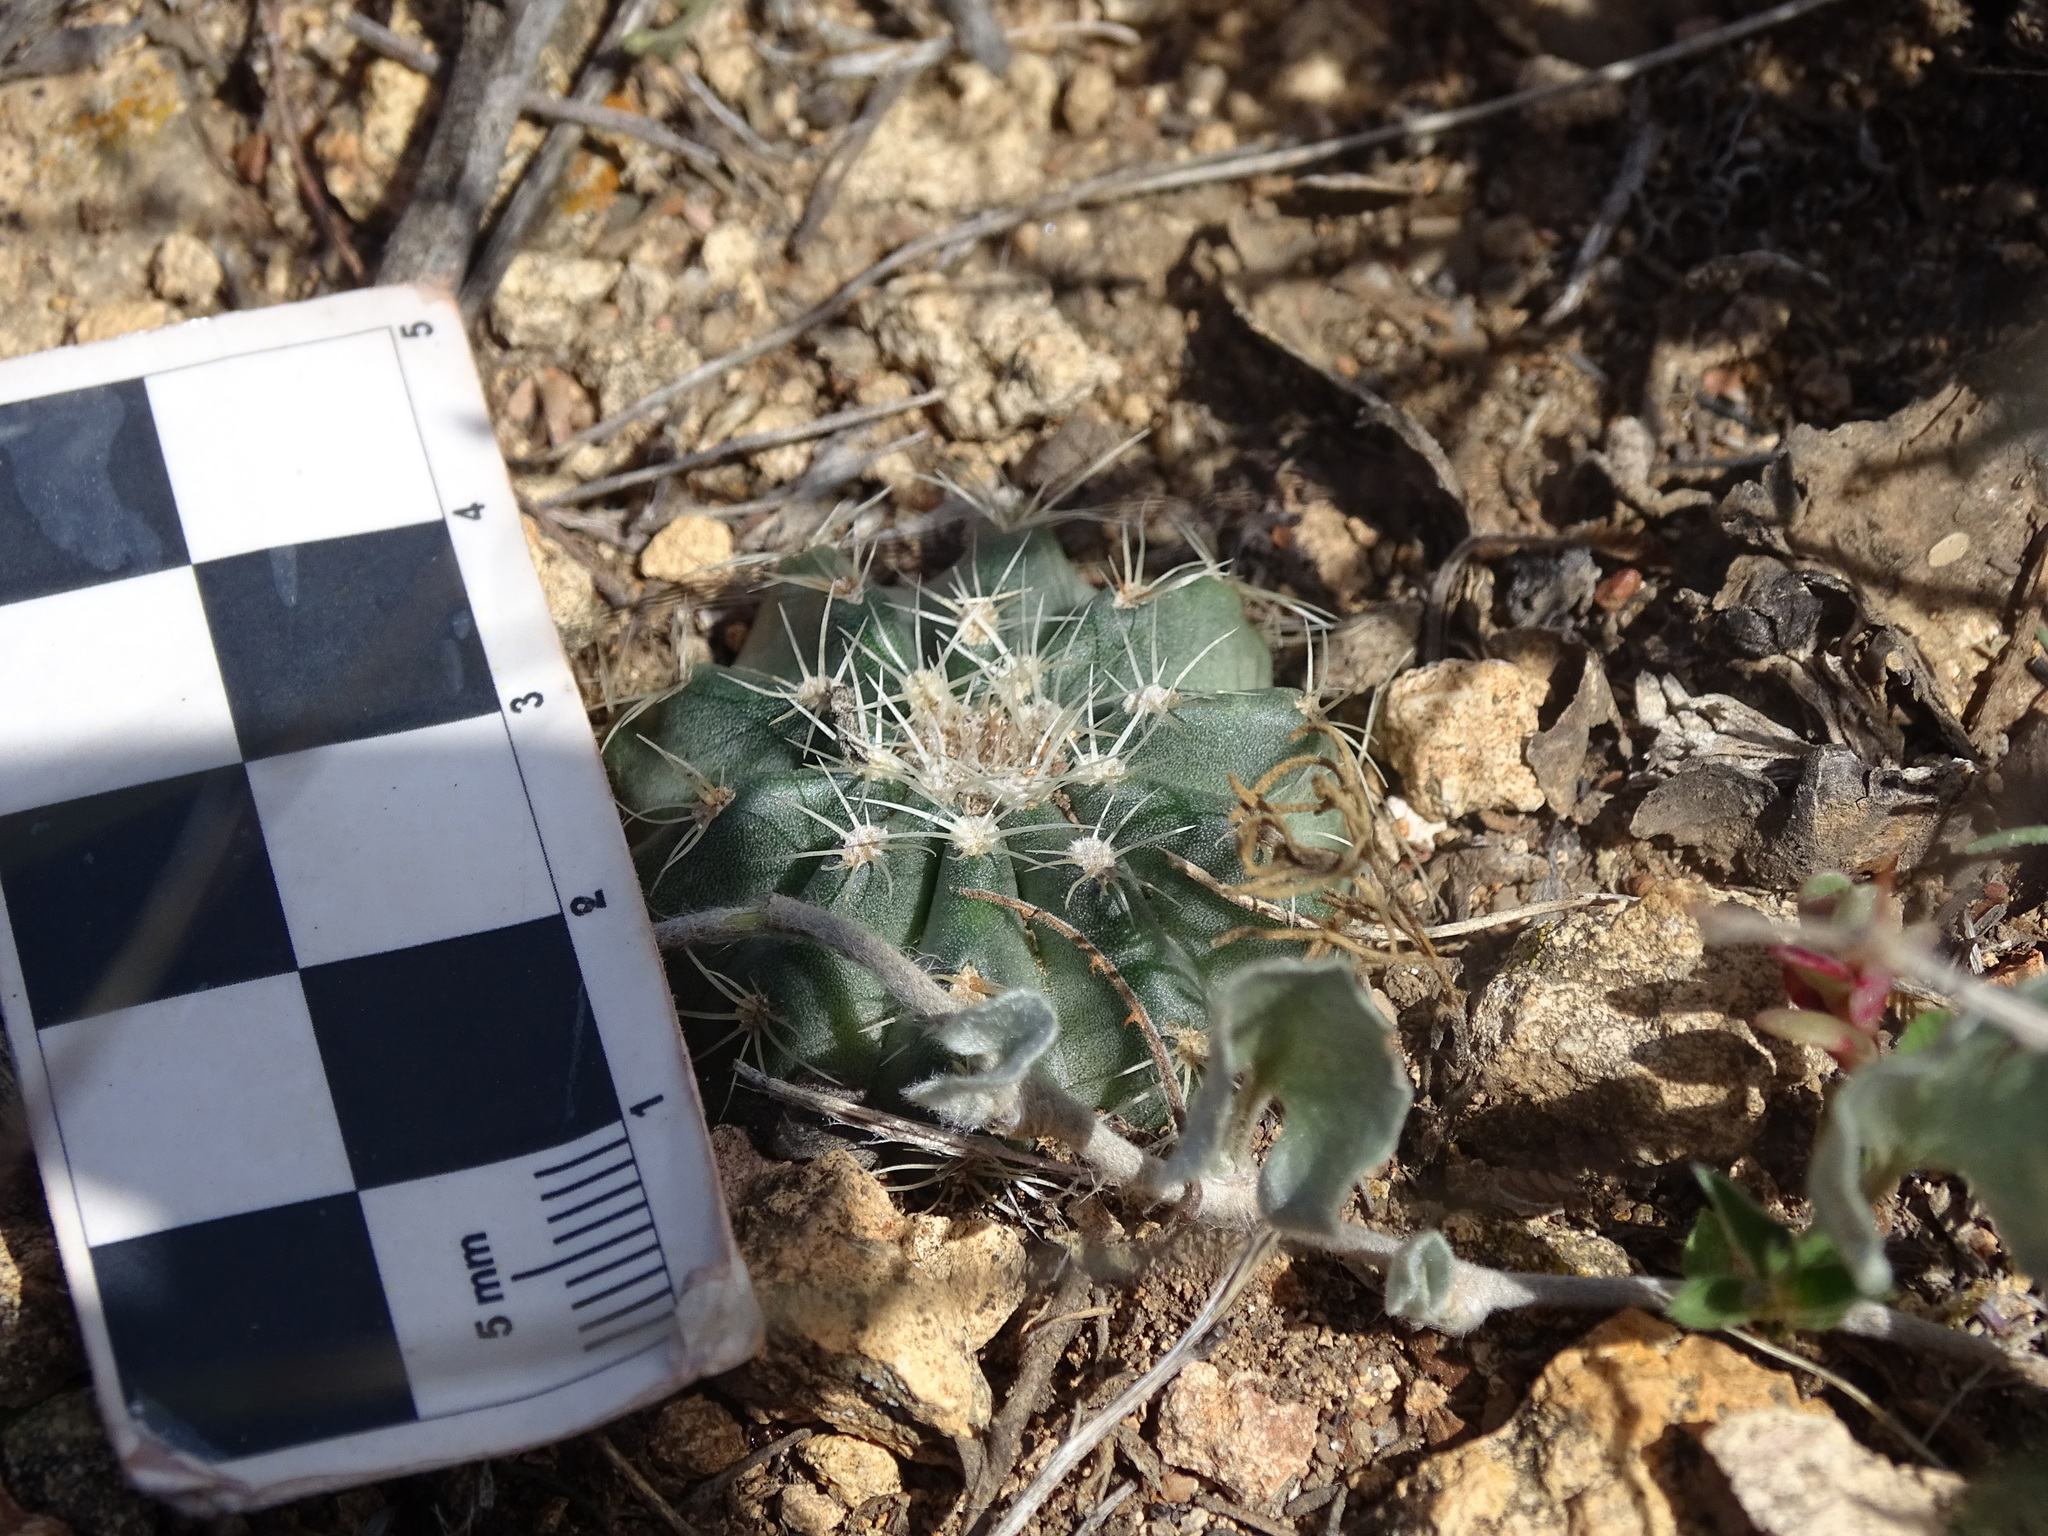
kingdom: Plantae
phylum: Tracheophyta
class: Magnoliopsida
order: Caryophyllales
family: Cactaceae
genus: Echinocereus
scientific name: Echinocereus weinbergii
